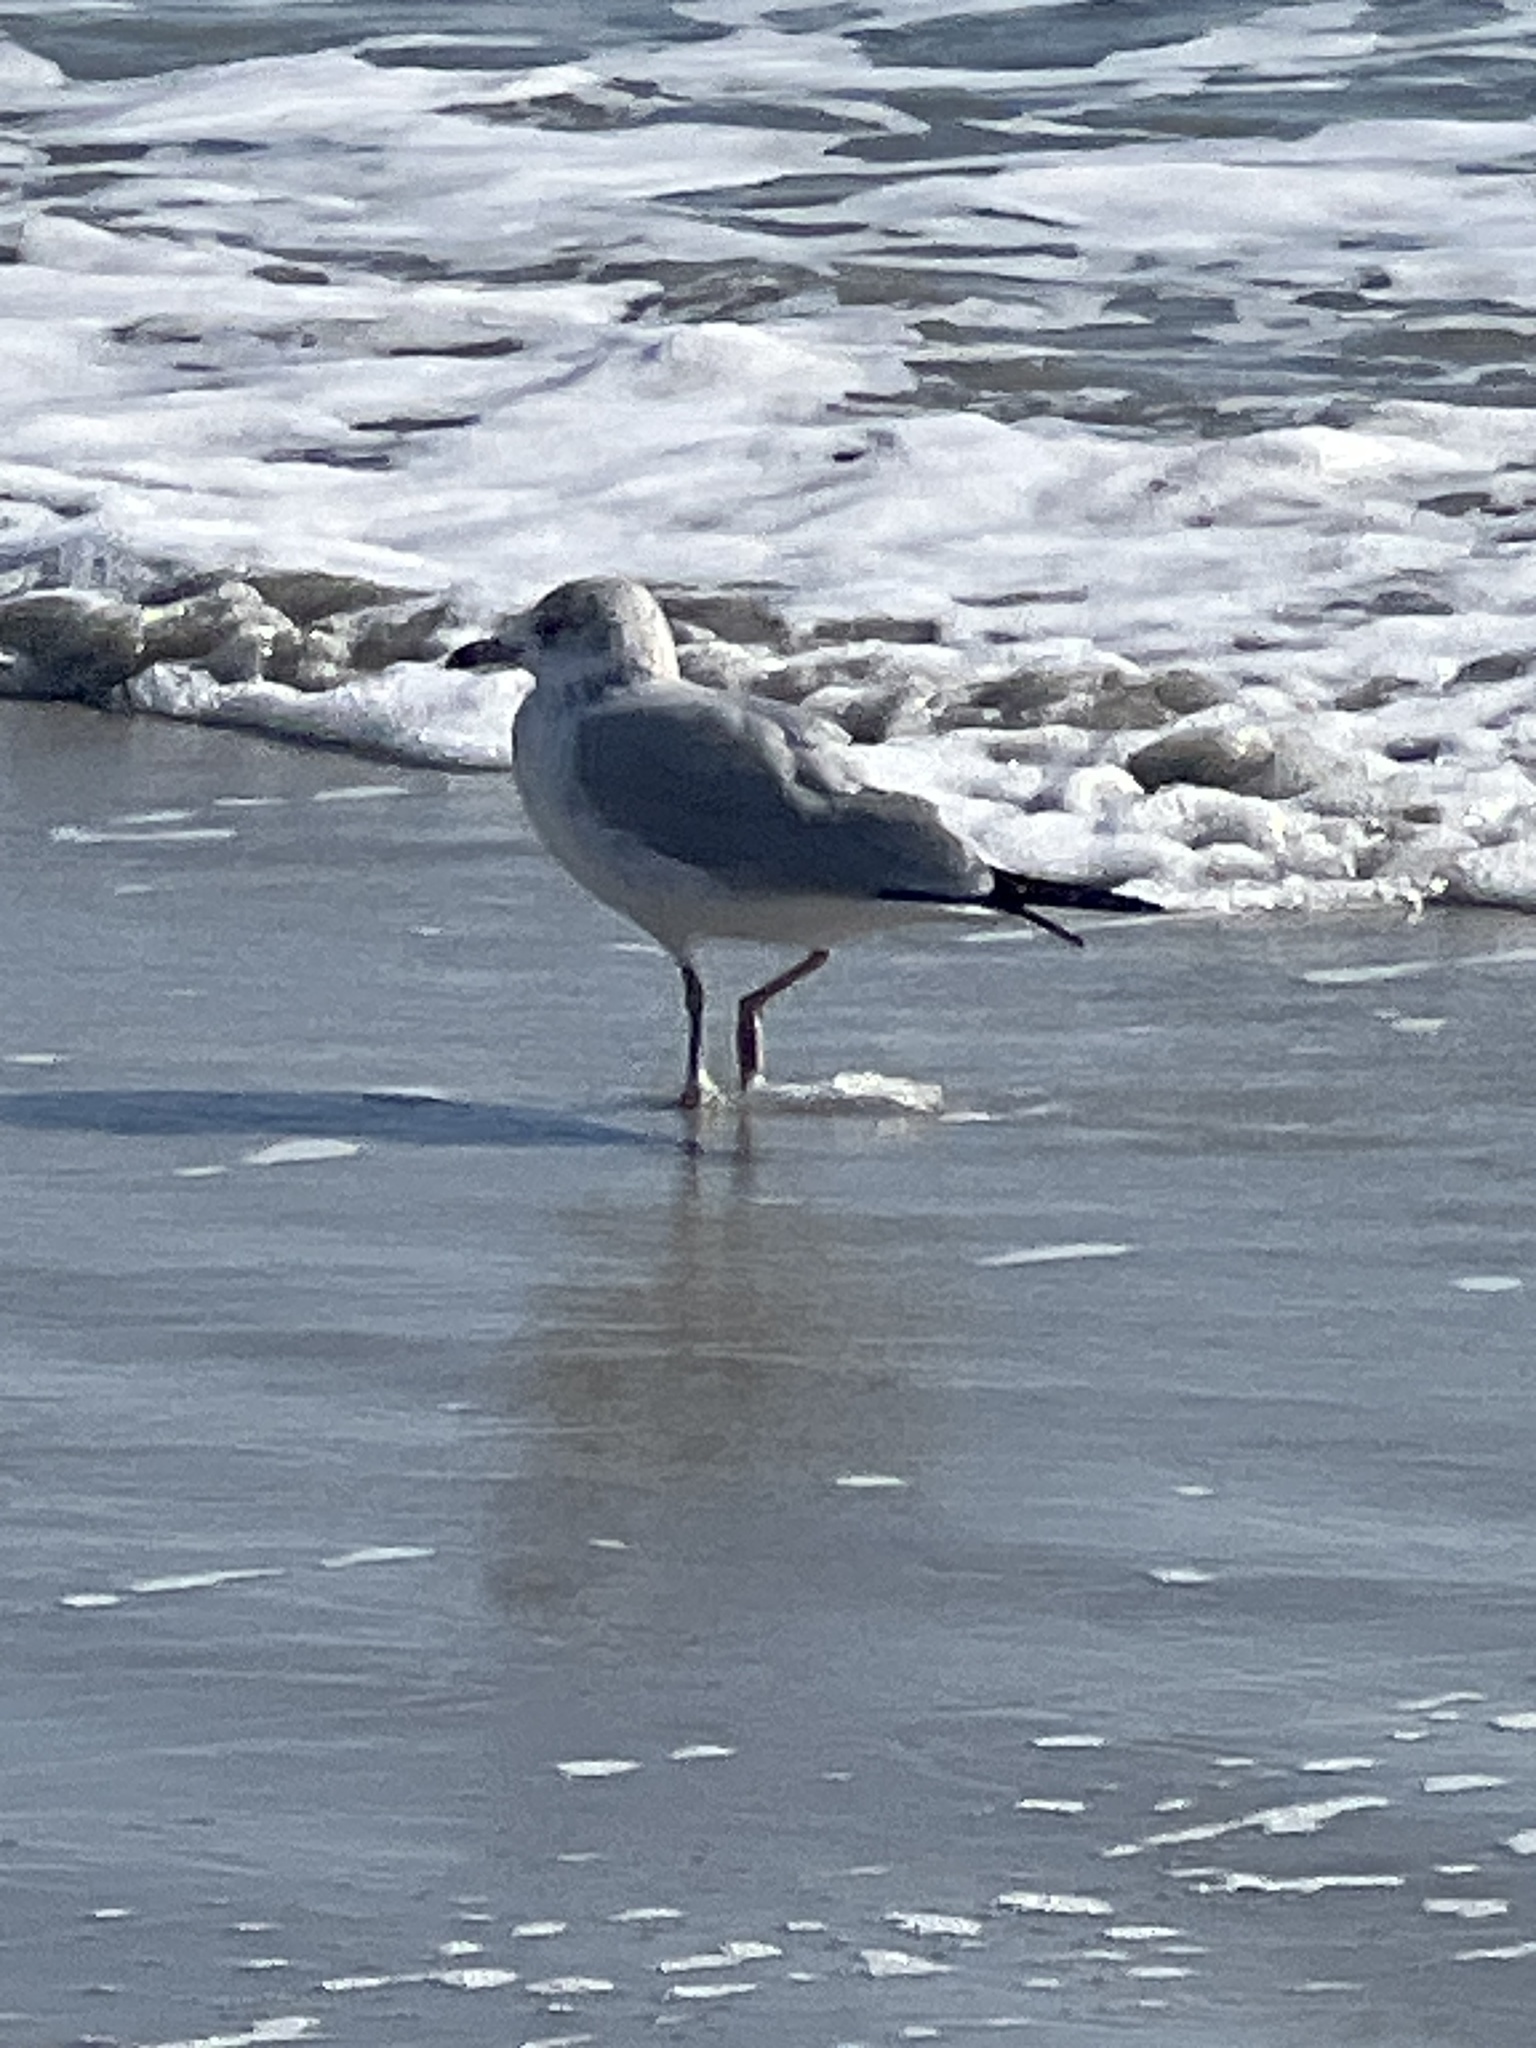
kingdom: Animalia
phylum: Chordata
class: Aves
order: Charadriiformes
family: Laridae
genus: Larus
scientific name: Larus delawarensis
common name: Ring-billed gull
